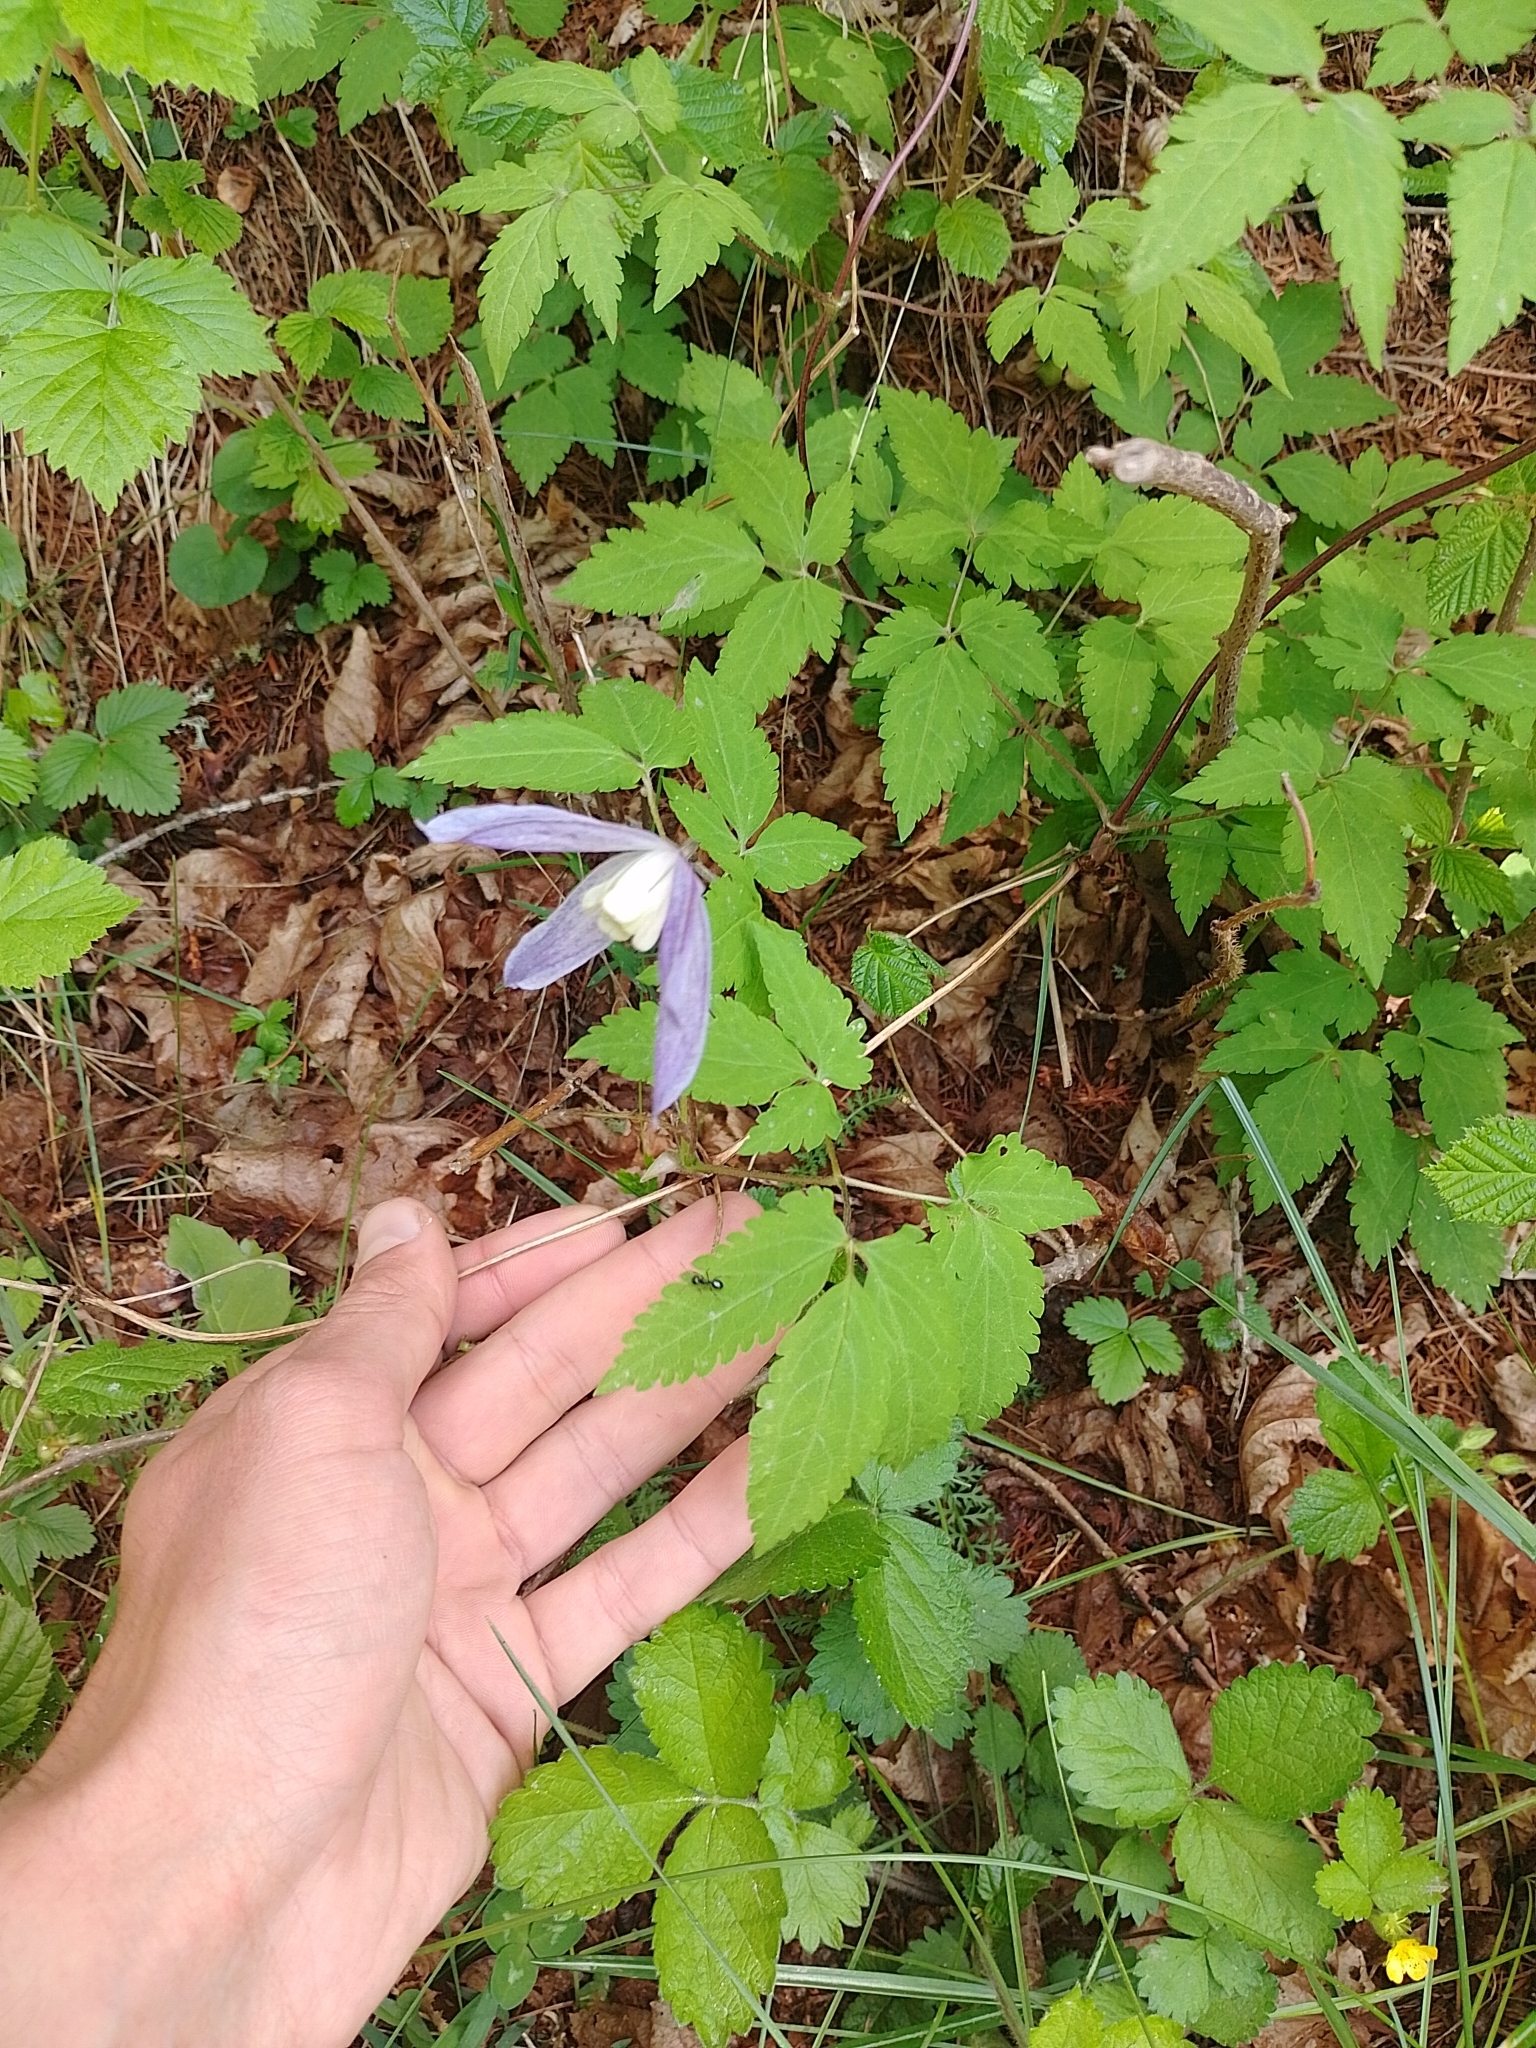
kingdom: Plantae
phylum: Tracheophyta
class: Magnoliopsida
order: Ranunculales
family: Ranunculaceae
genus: Clematis
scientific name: Clematis alpina
